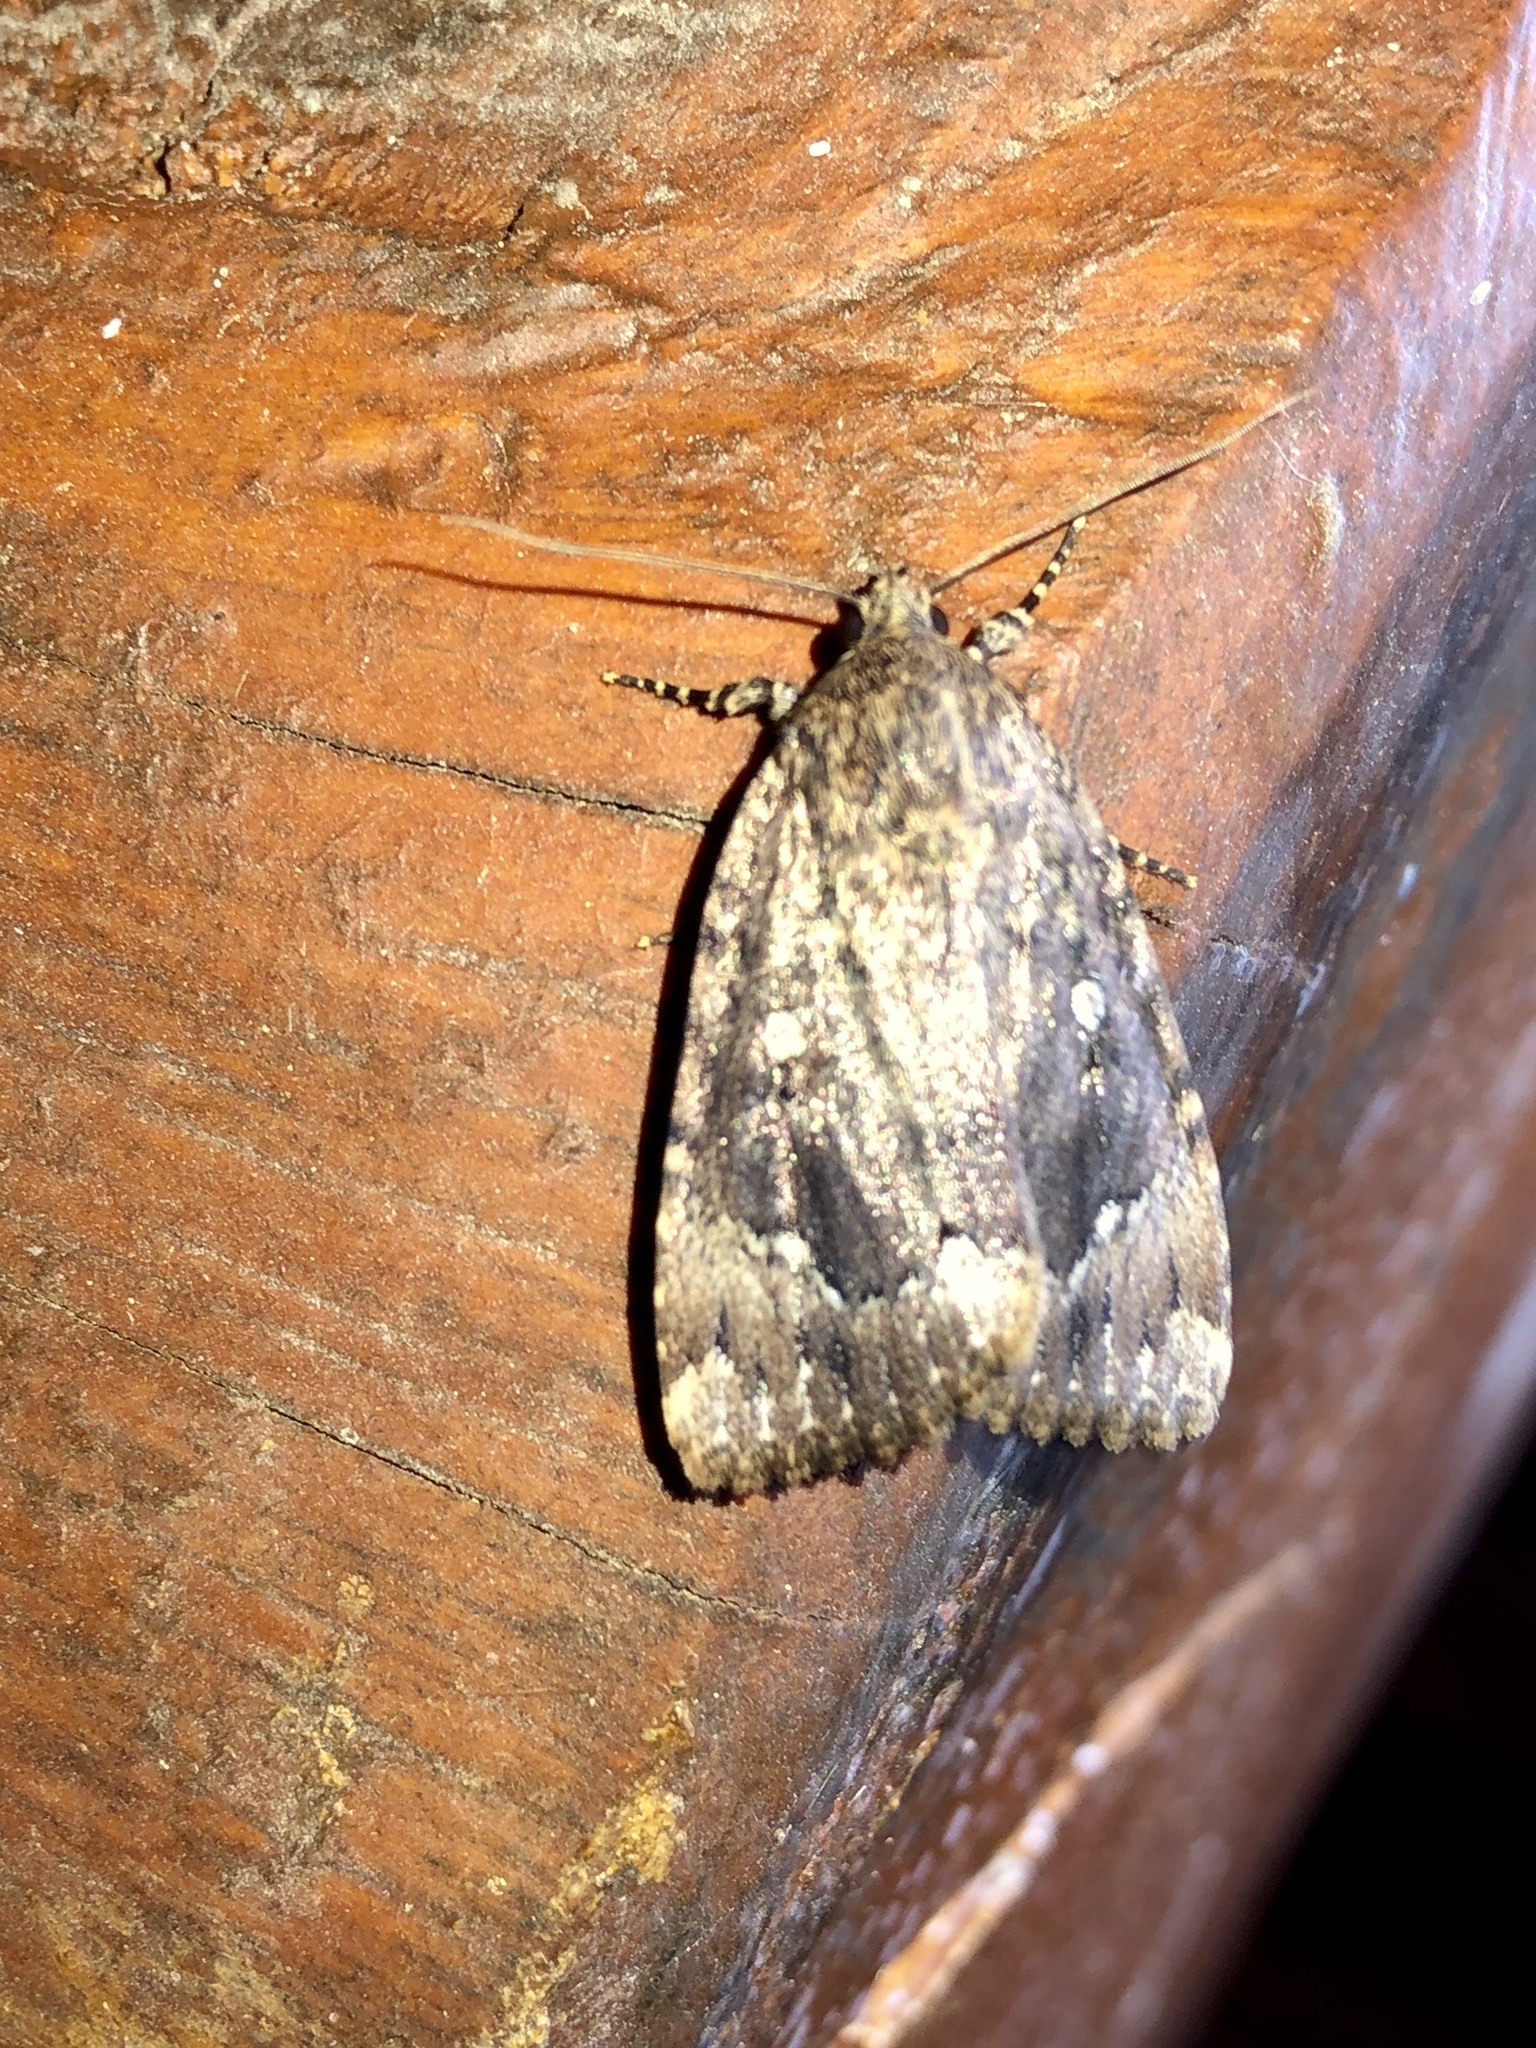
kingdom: Animalia
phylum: Arthropoda
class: Insecta
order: Lepidoptera
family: Noctuidae
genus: Amphipyra
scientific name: Amphipyra pyramidoides
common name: American copper underwing
